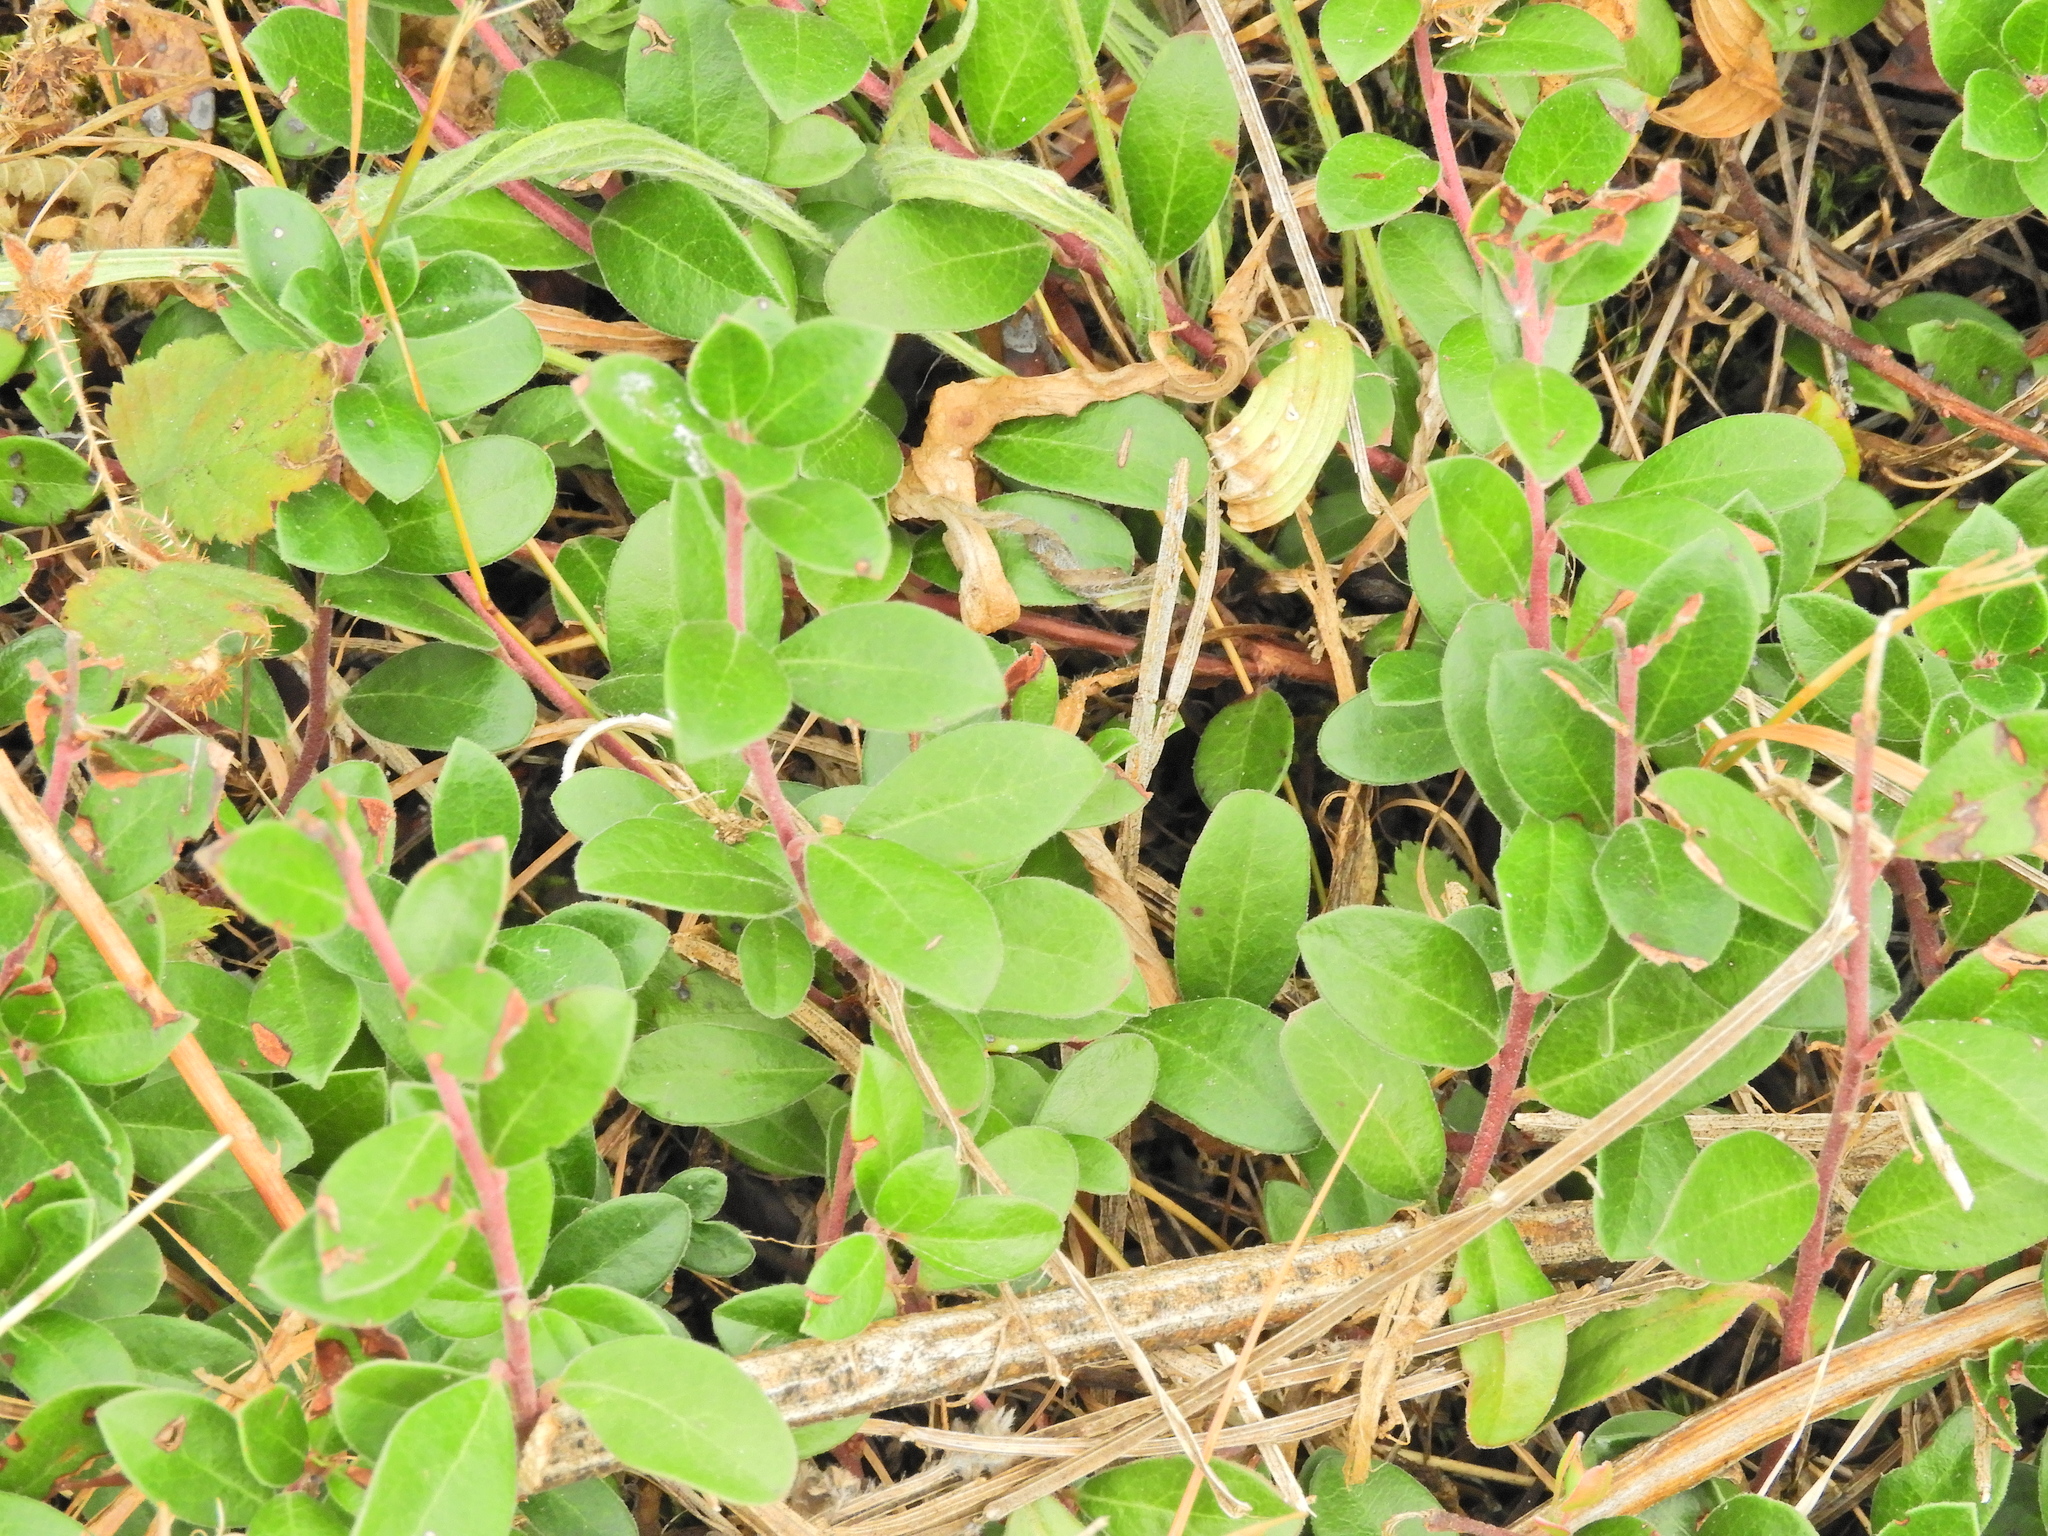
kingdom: Plantae
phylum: Tracheophyta
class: Magnoliopsida
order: Ericales
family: Ericaceae
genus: Arctostaphylos
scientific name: Arctostaphylos uva-ursi
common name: Bearberry
